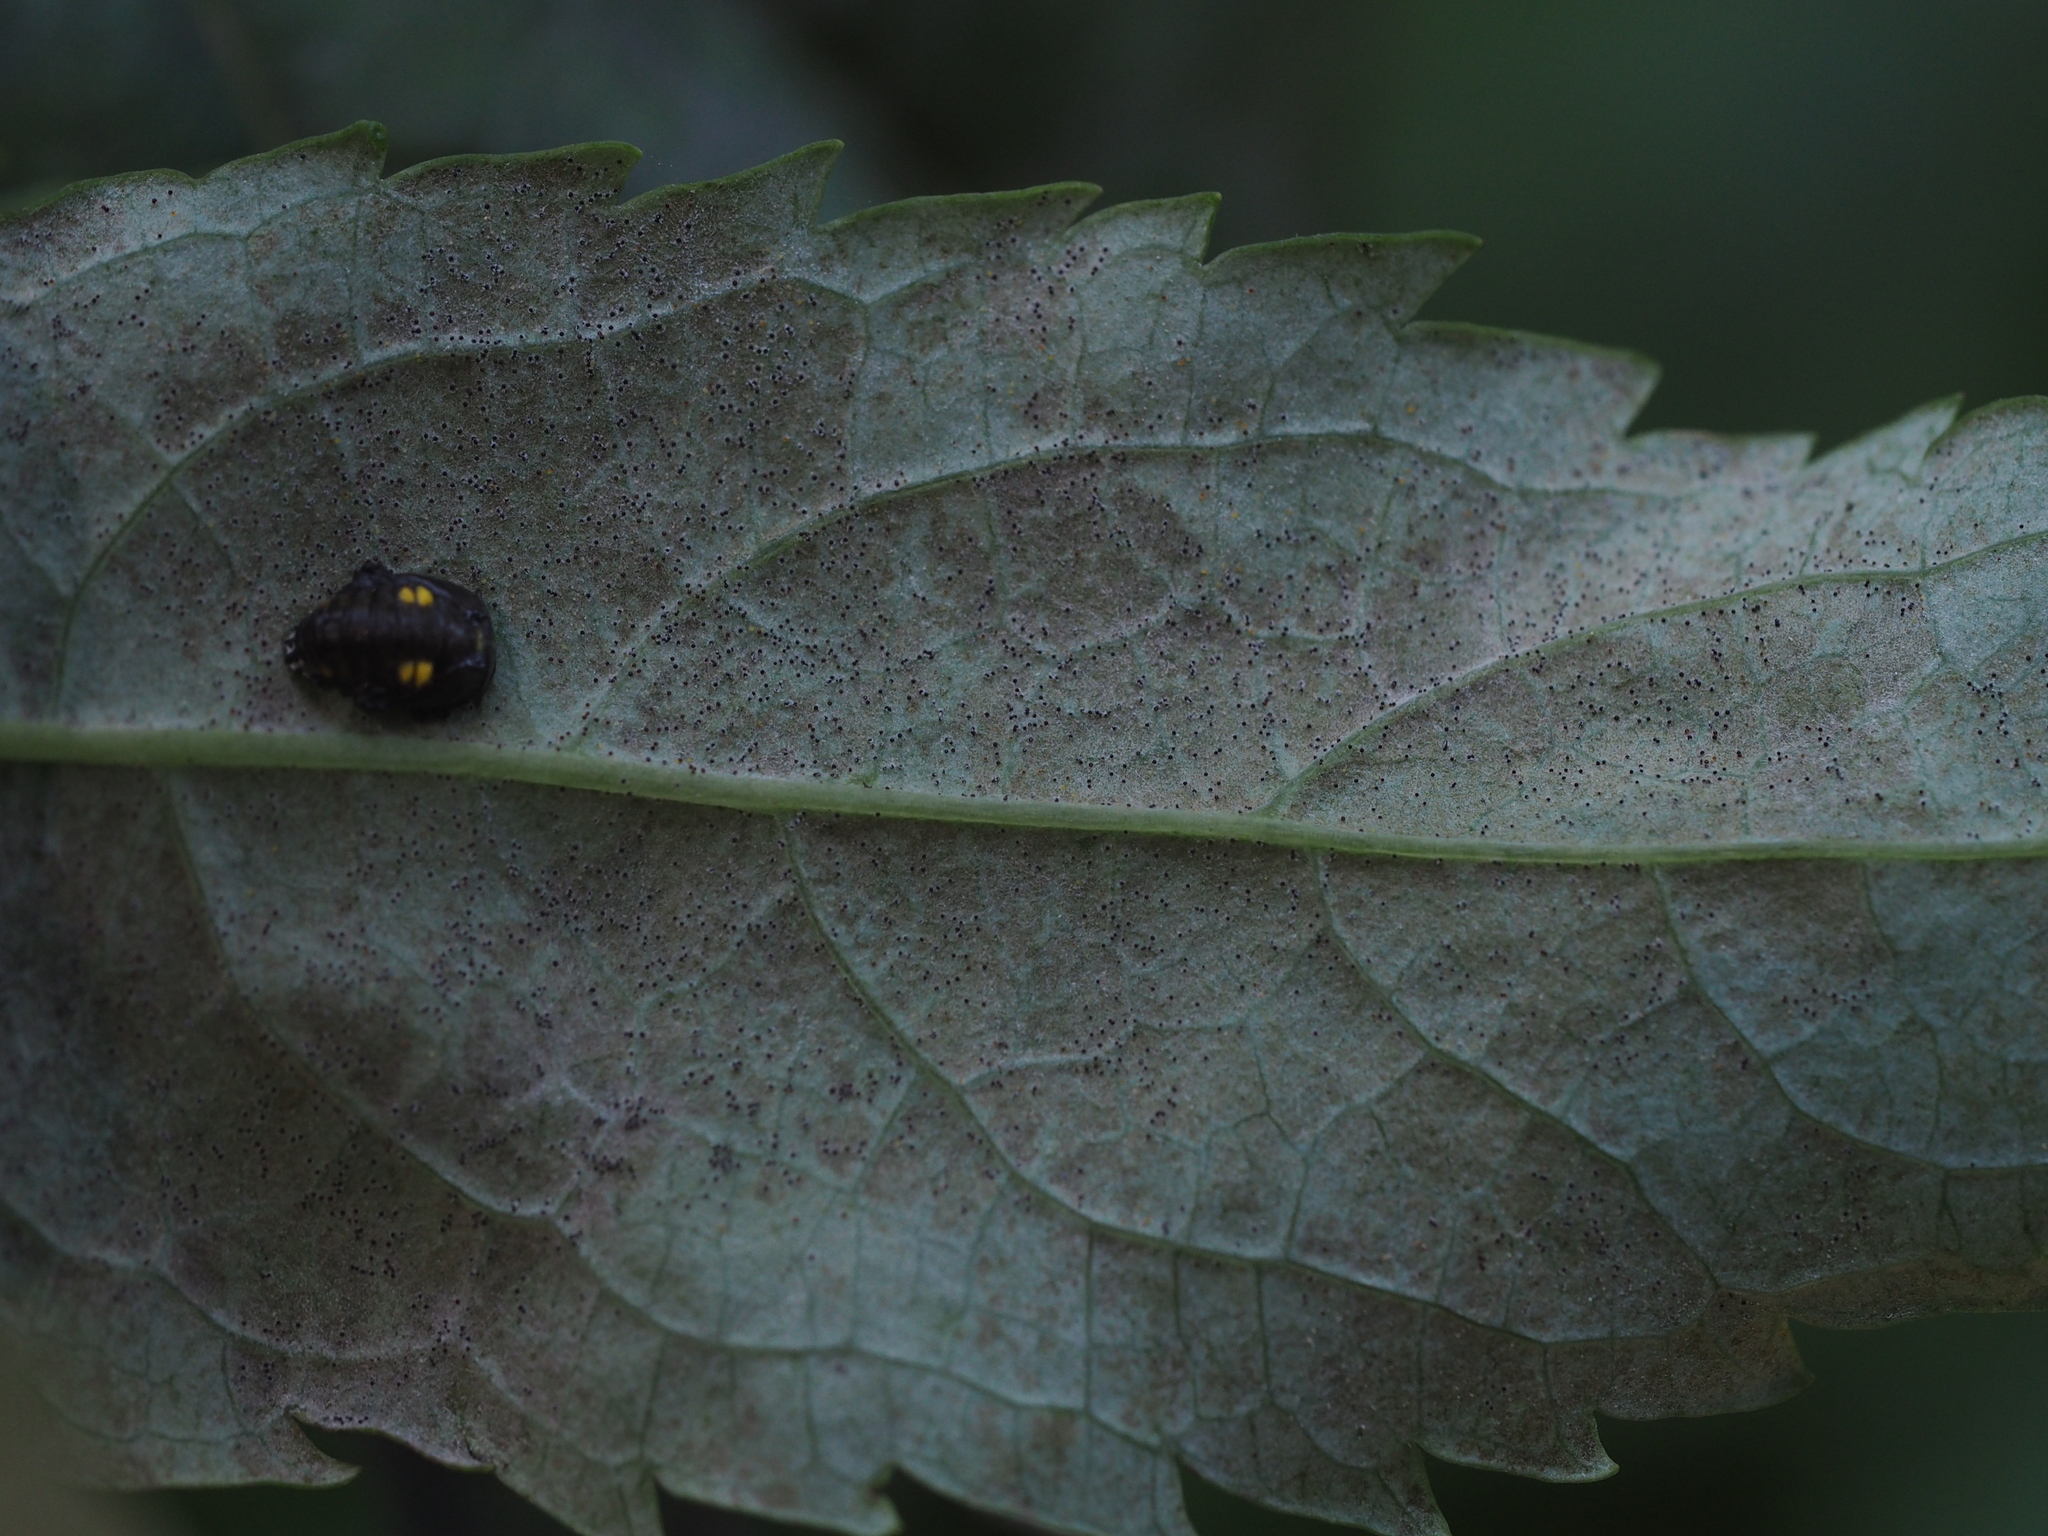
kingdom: Fungi
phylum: Ascomycota
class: Leotiomycetes
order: Helotiales
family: Erysiphaceae
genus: Erysiphe
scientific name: Erysiphe sambuci
